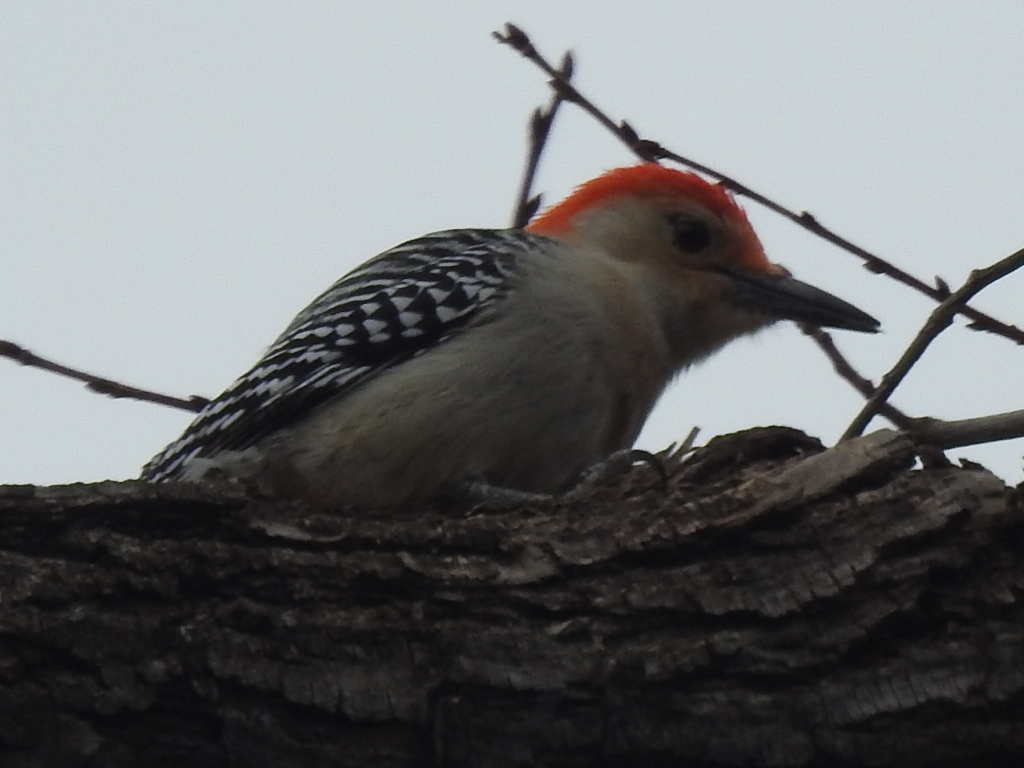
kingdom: Animalia
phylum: Chordata
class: Aves
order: Piciformes
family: Picidae
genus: Melanerpes
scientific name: Melanerpes carolinus
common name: Red-bellied woodpecker
